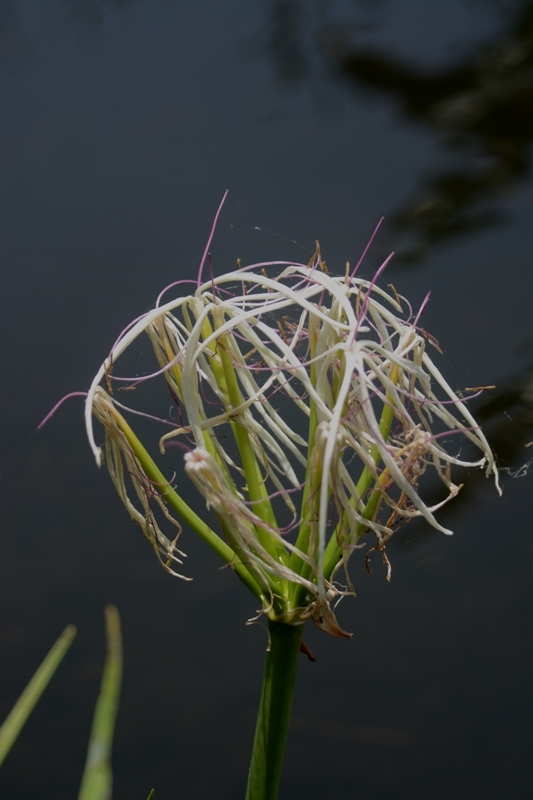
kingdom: Plantae
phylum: Tracheophyta
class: Liliopsida
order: Asparagales
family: Amaryllidaceae
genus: Crinum
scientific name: Crinum bulbispermum
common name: Hardy swamplily
